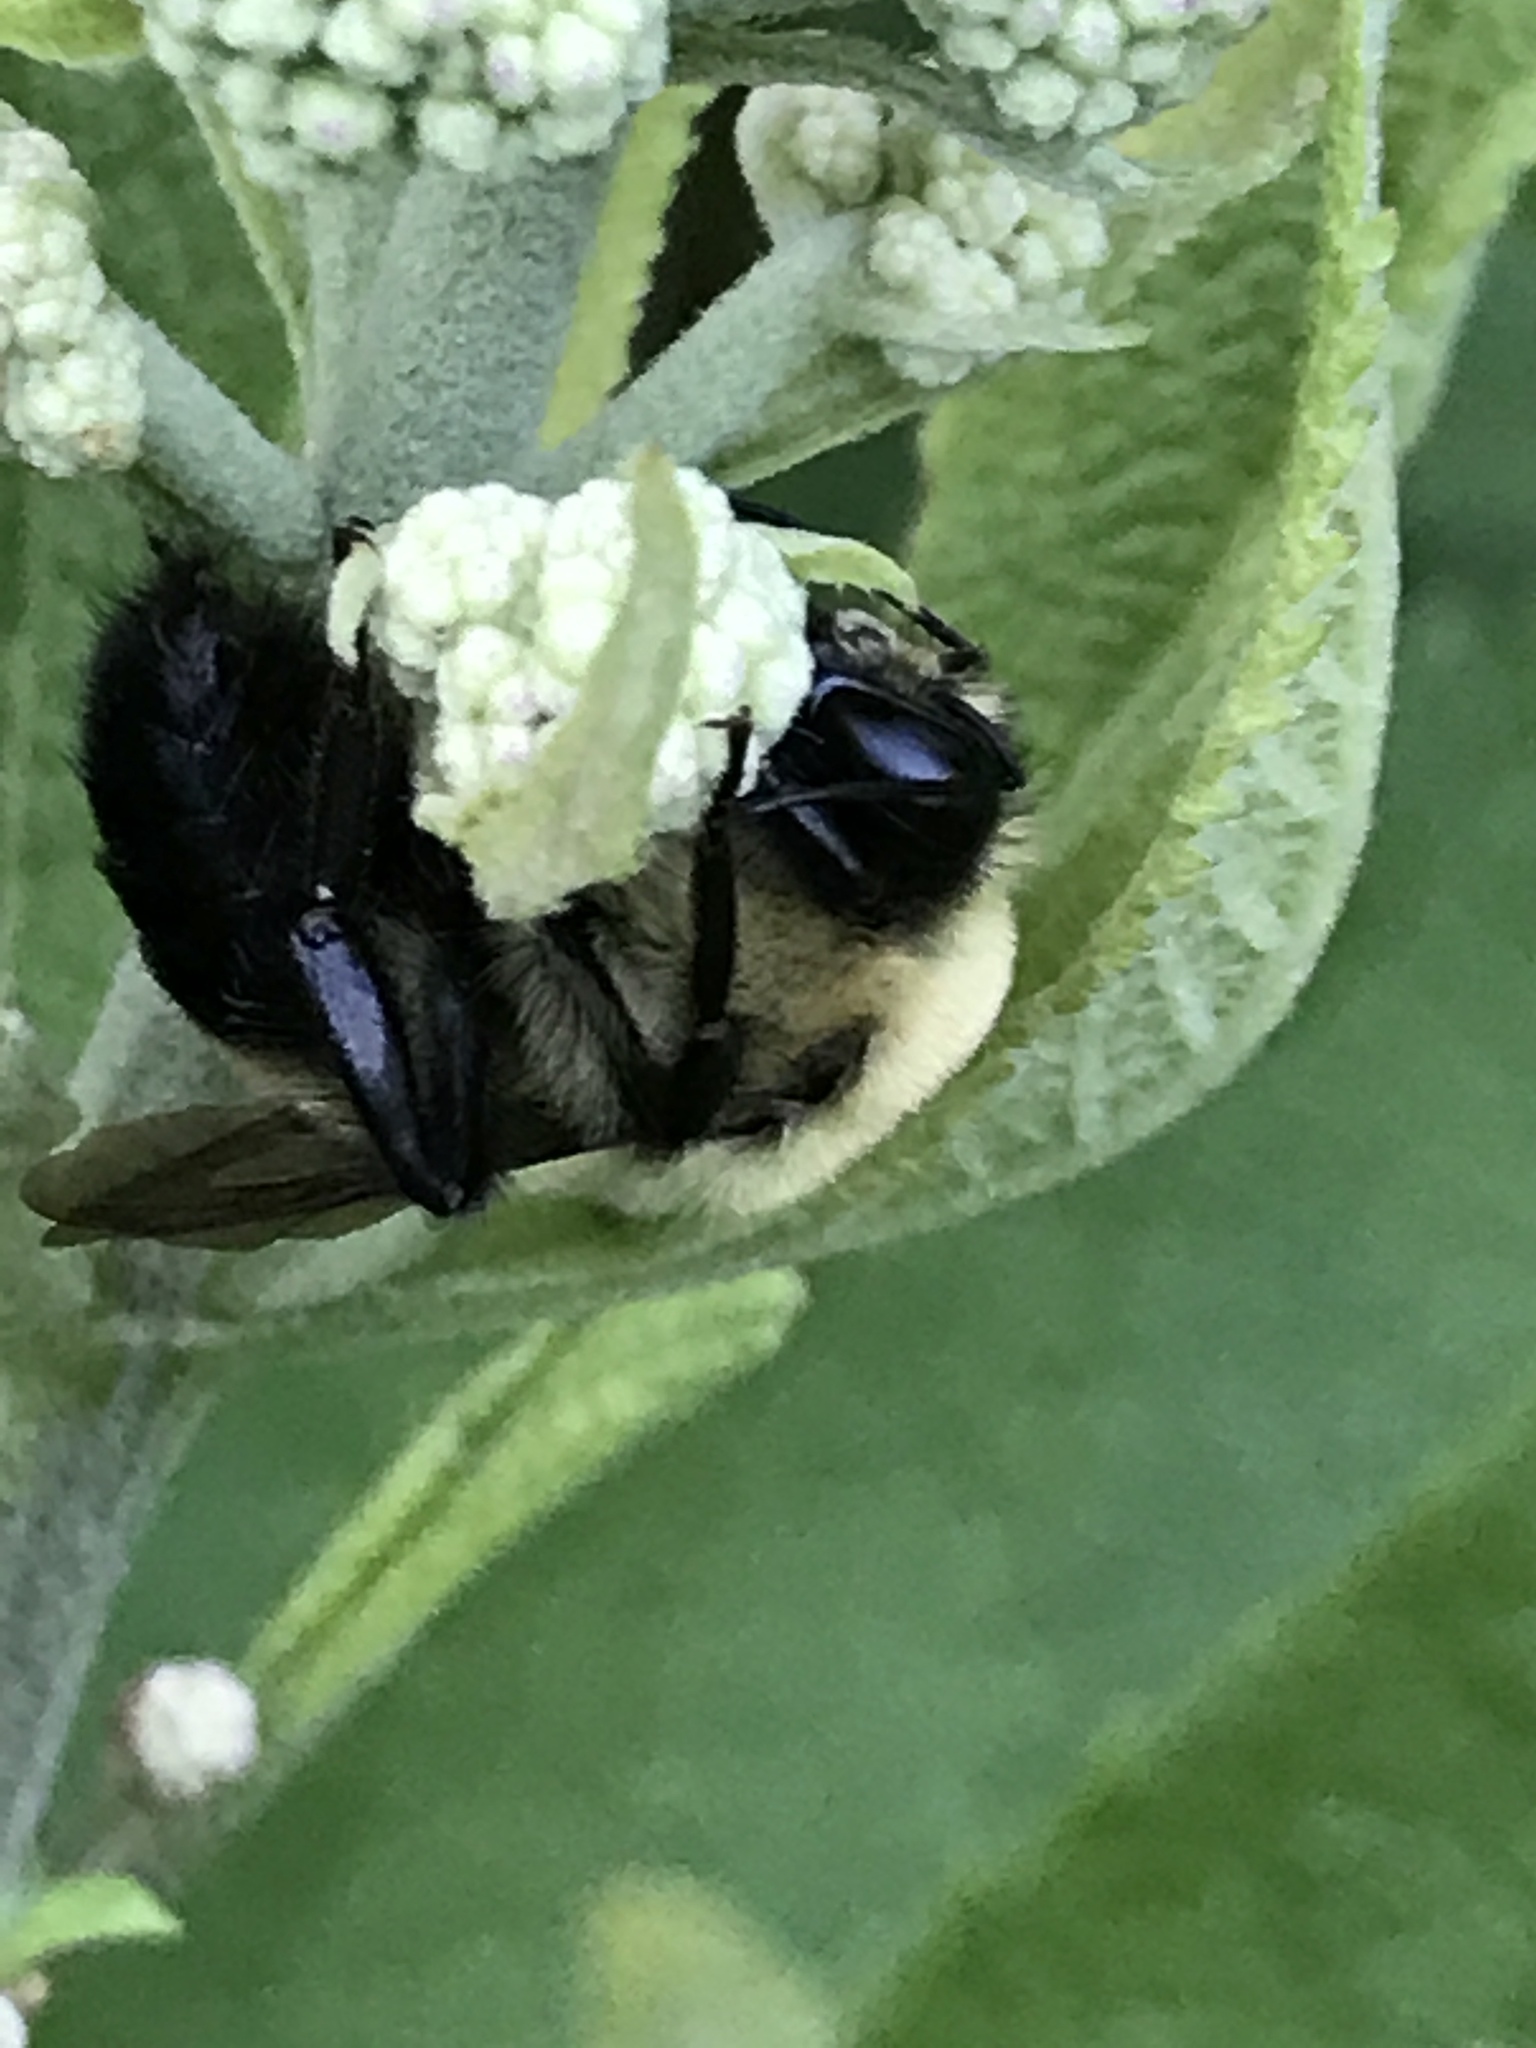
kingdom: Animalia
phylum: Arthropoda
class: Insecta
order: Hymenoptera
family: Apidae
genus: Bombus
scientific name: Bombus
